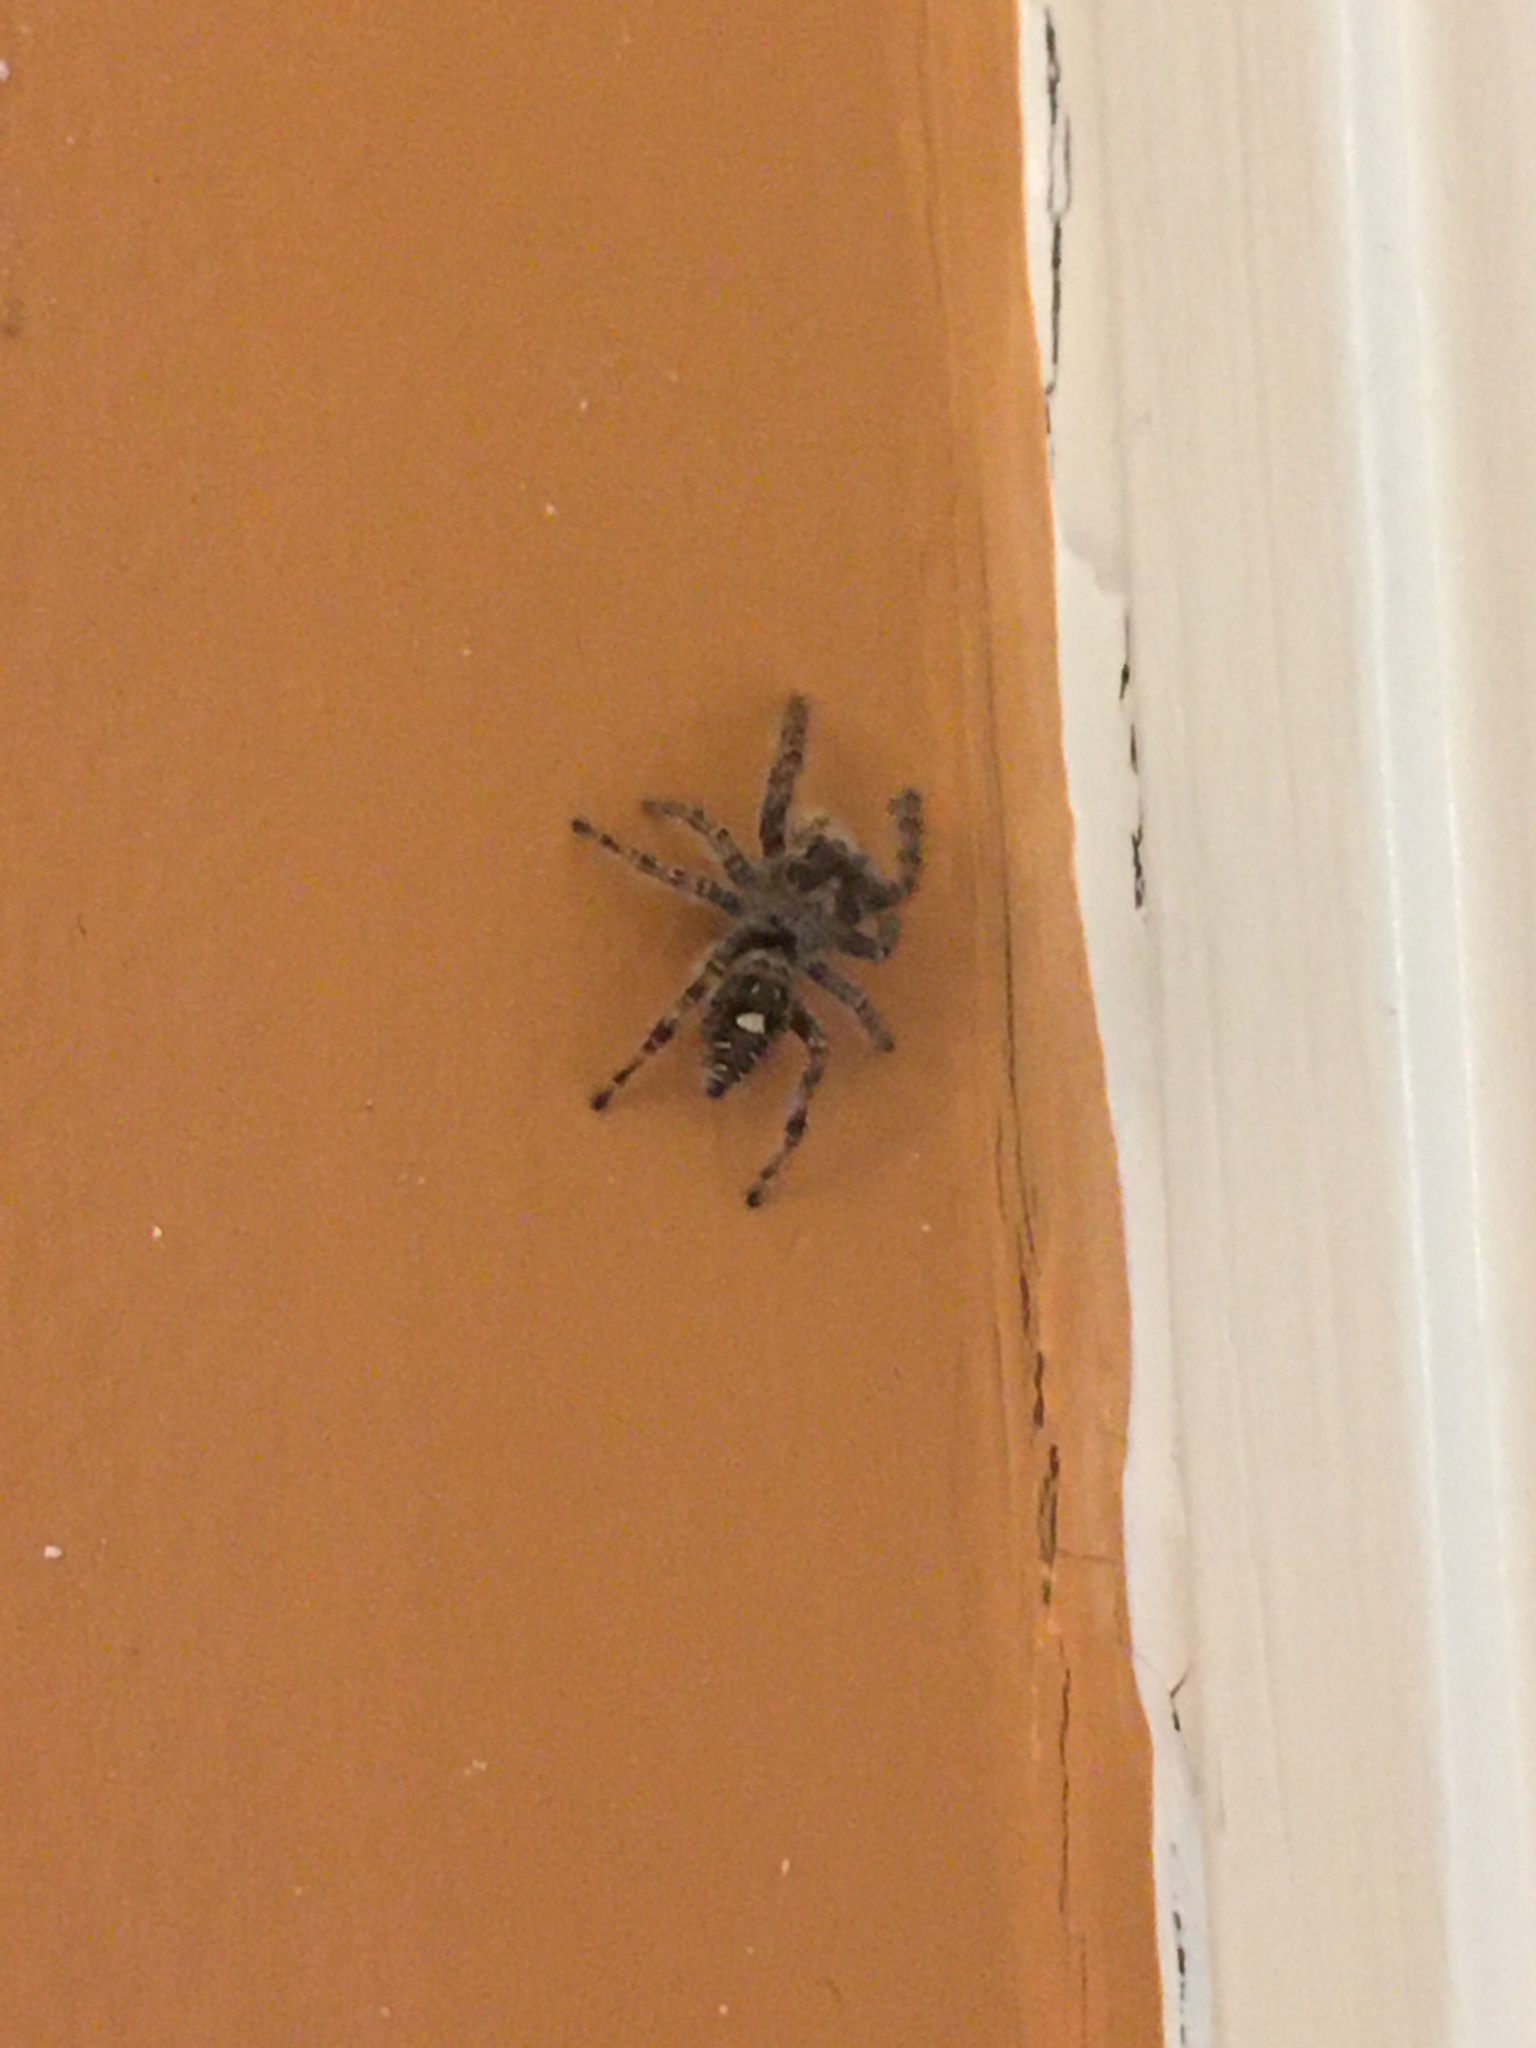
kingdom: Animalia
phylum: Arthropoda
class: Arachnida
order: Araneae
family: Salticidae
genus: Phidippus
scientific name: Phidippus putnami
